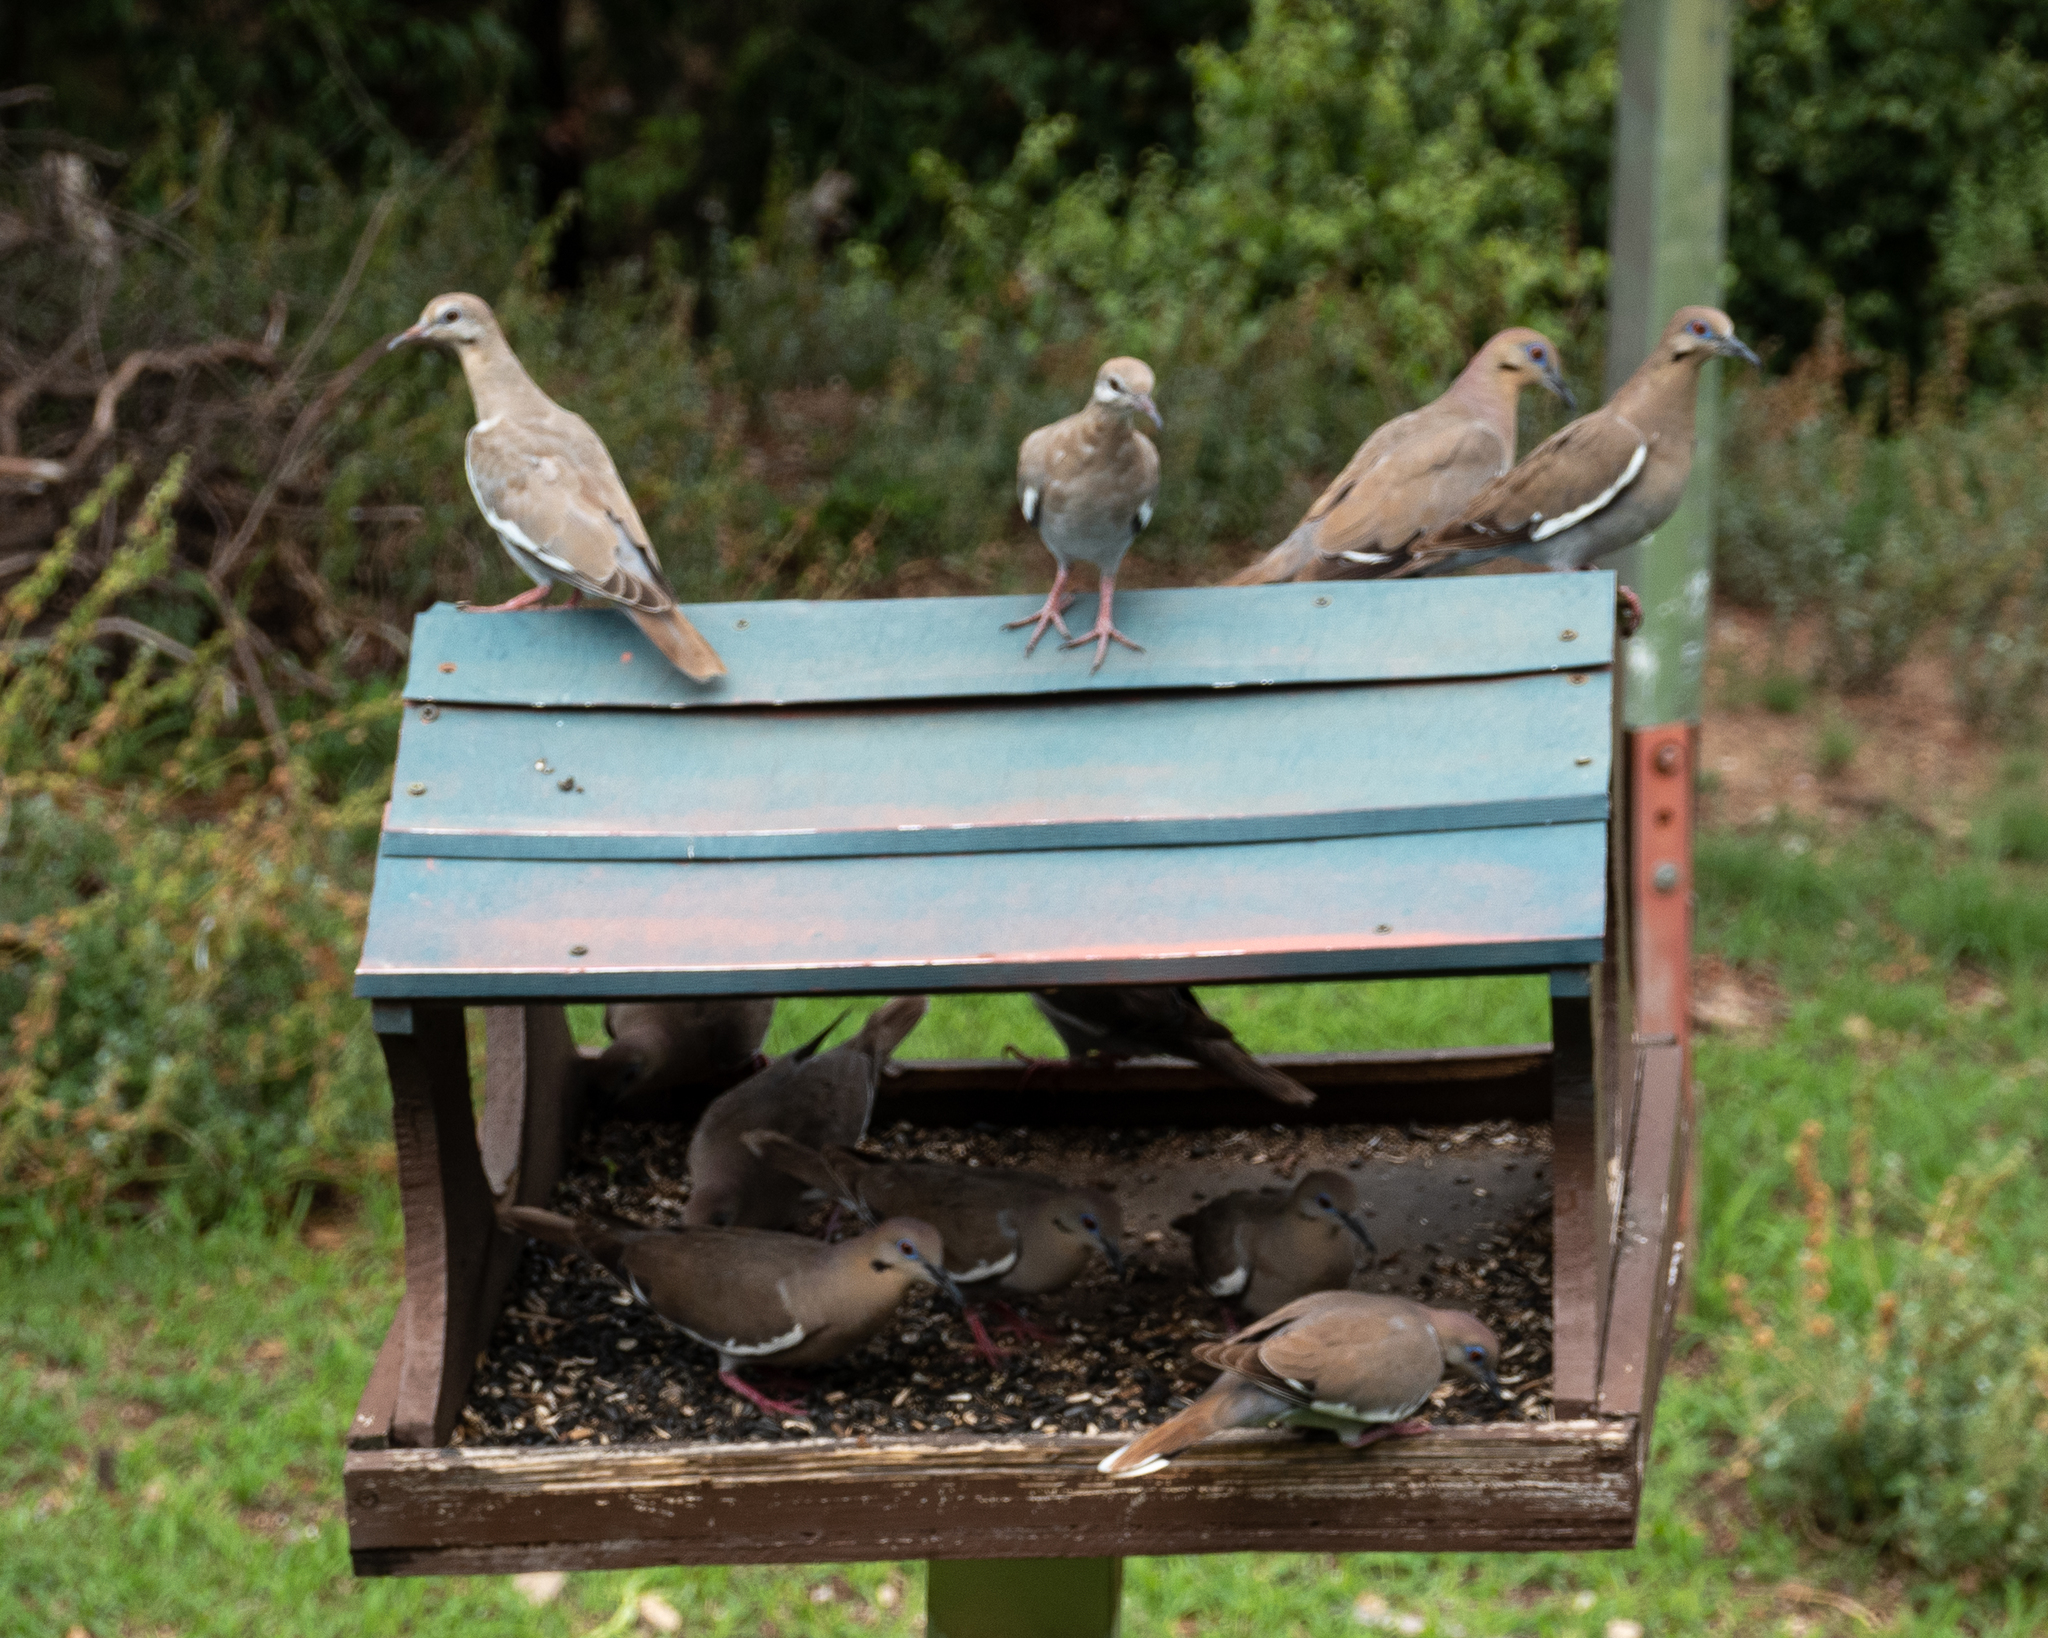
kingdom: Animalia
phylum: Chordata
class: Aves
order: Columbiformes
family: Columbidae
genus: Zenaida
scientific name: Zenaida asiatica
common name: White-winged dove
